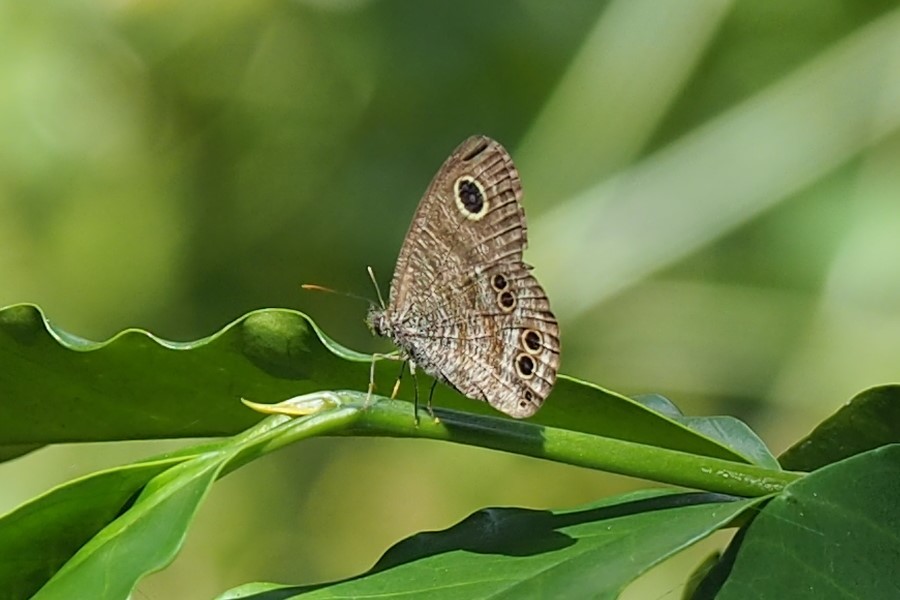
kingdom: Animalia
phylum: Arthropoda
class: Insecta
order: Lepidoptera
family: Nymphalidae
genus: Ypthima
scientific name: Ypthima baldus
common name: Common five-ring
